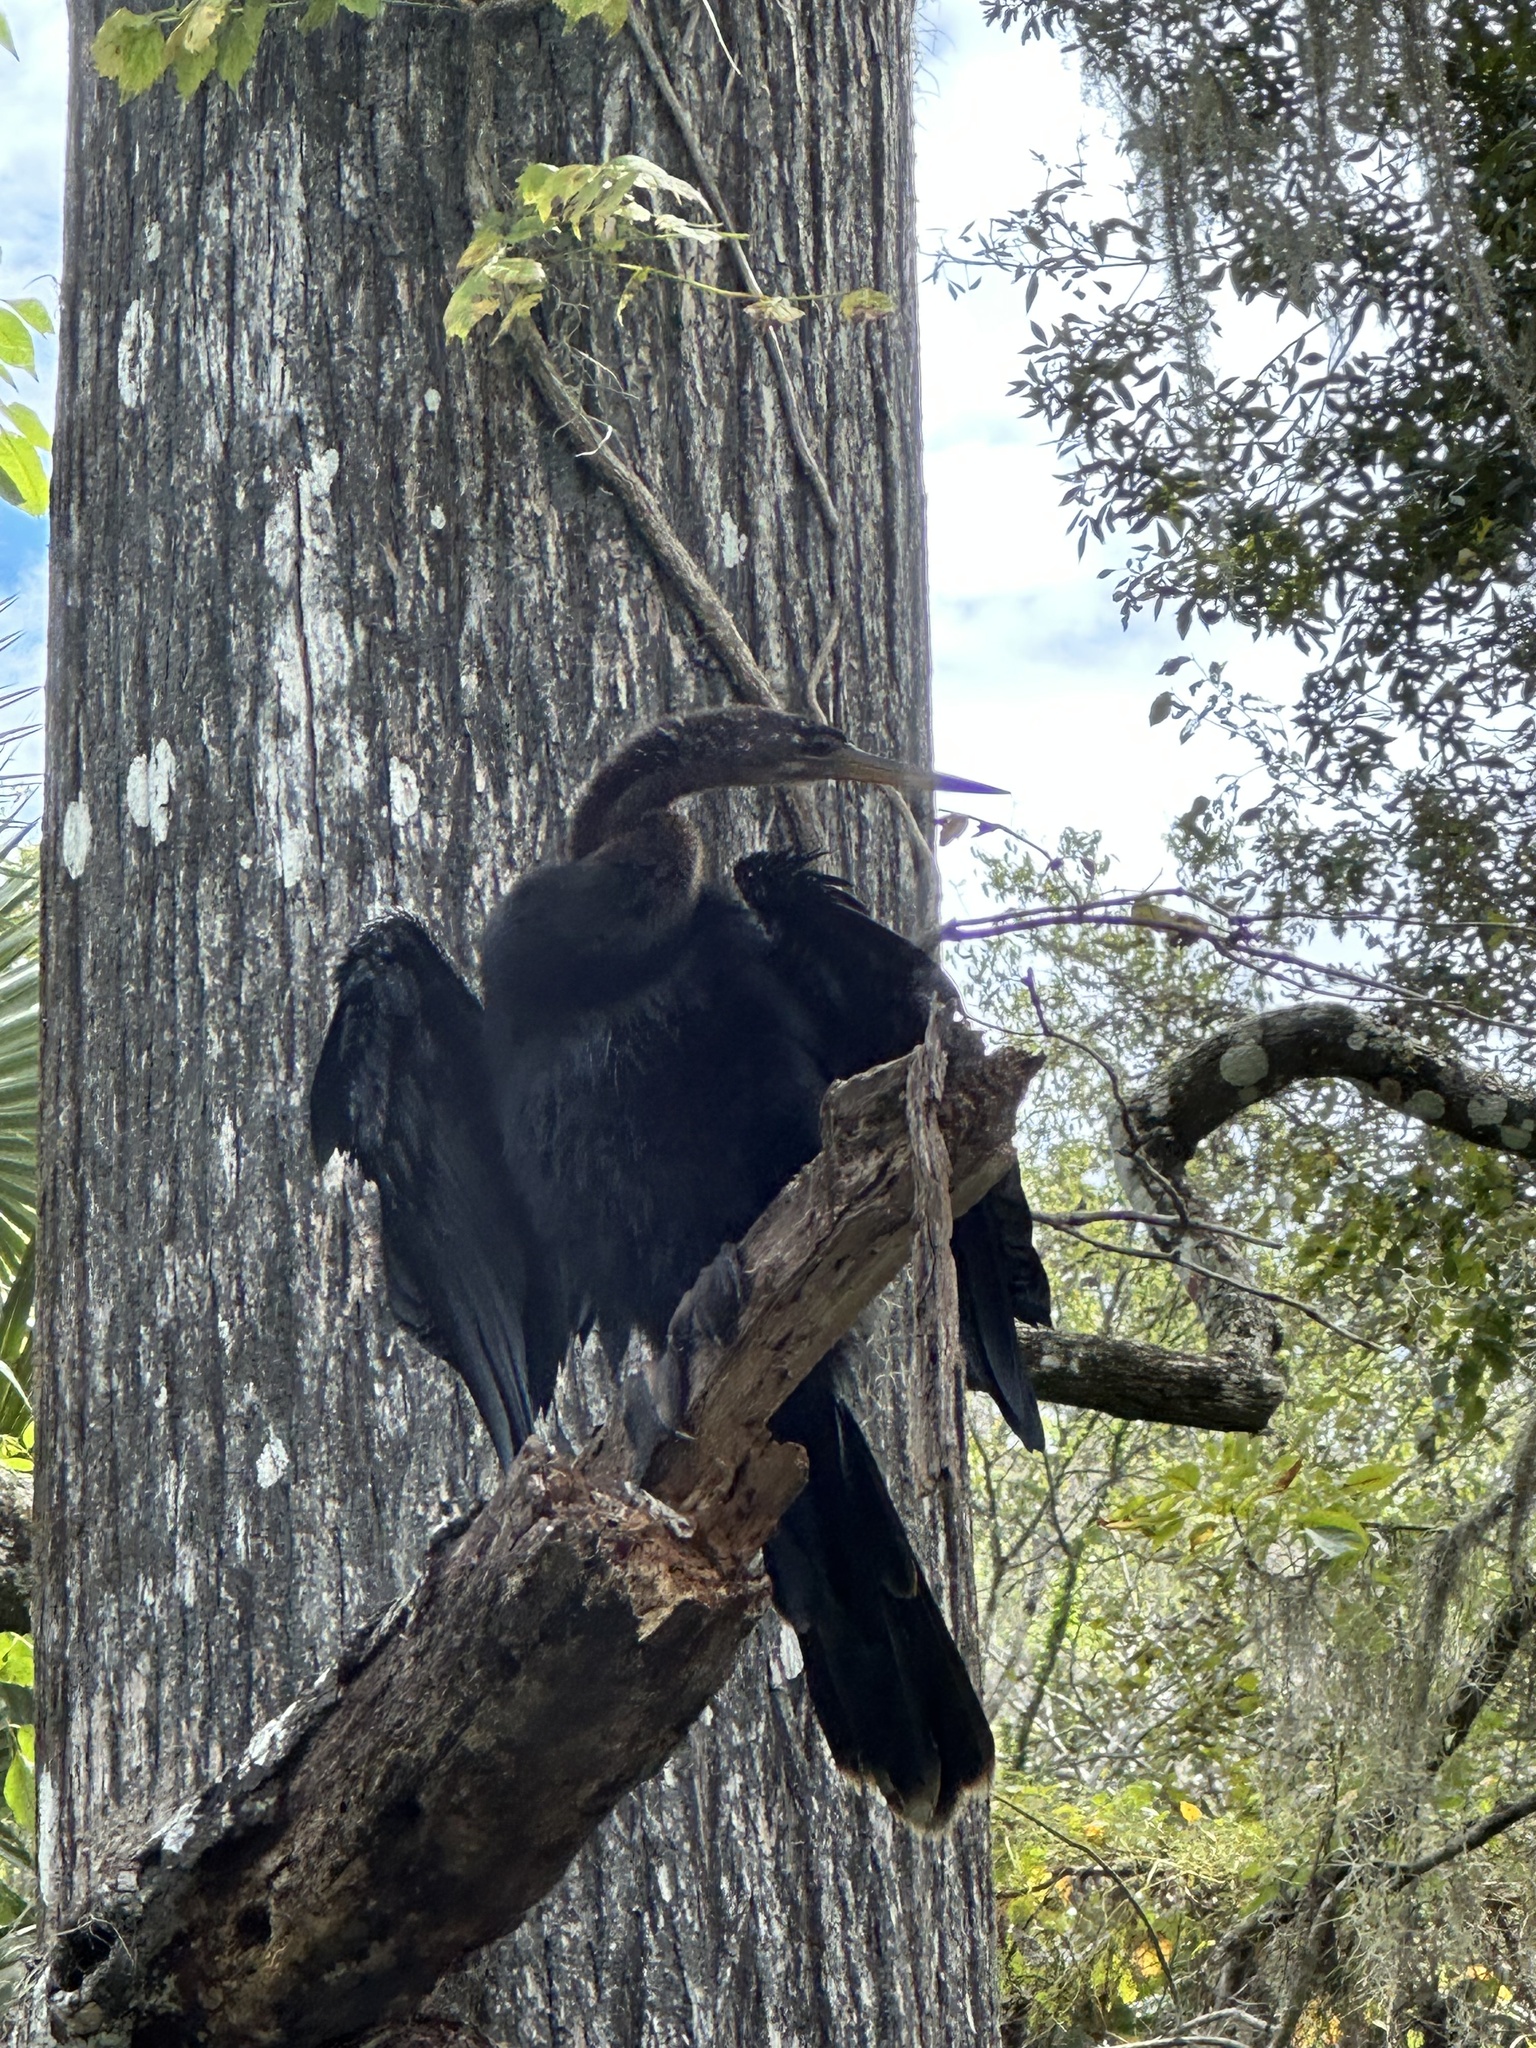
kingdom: Animalia
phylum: Chordata
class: Aves
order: Suliformes
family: Anhingidae
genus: Anhinga
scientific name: Anhinga anhinga
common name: Anhinga
